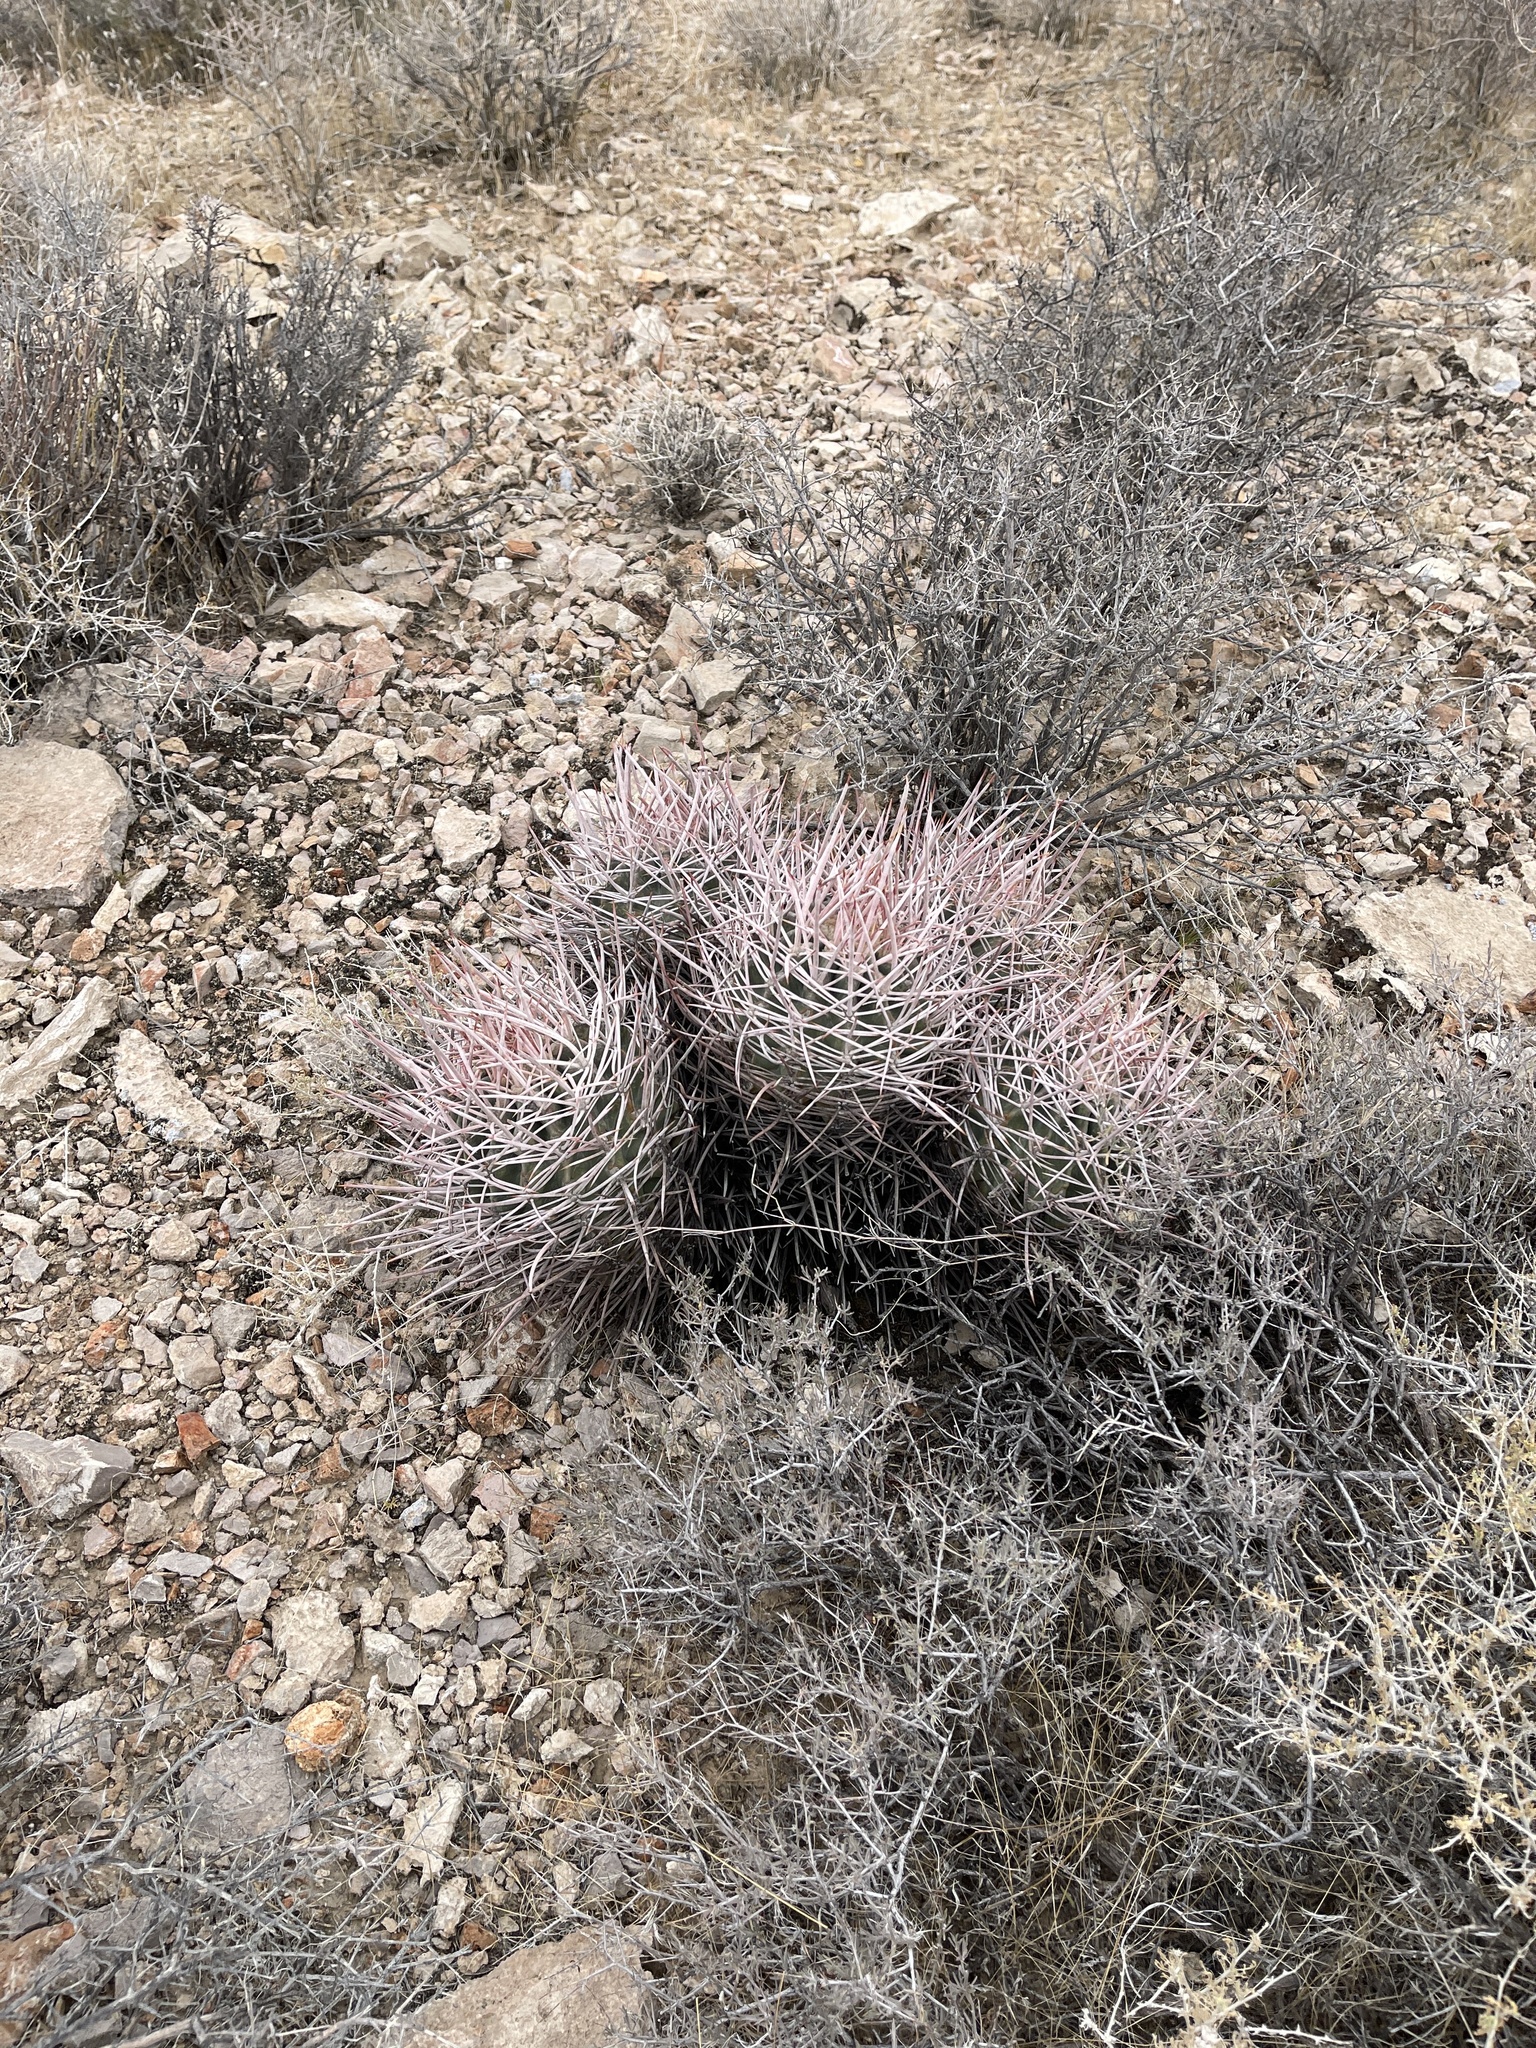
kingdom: Plantae
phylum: Tracheophyta
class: Magnoliopsida
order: Caryophyllales
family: Cactaceae
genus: Echinocactus
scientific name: Echinocactus polycephalus
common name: Cottontop cactus
